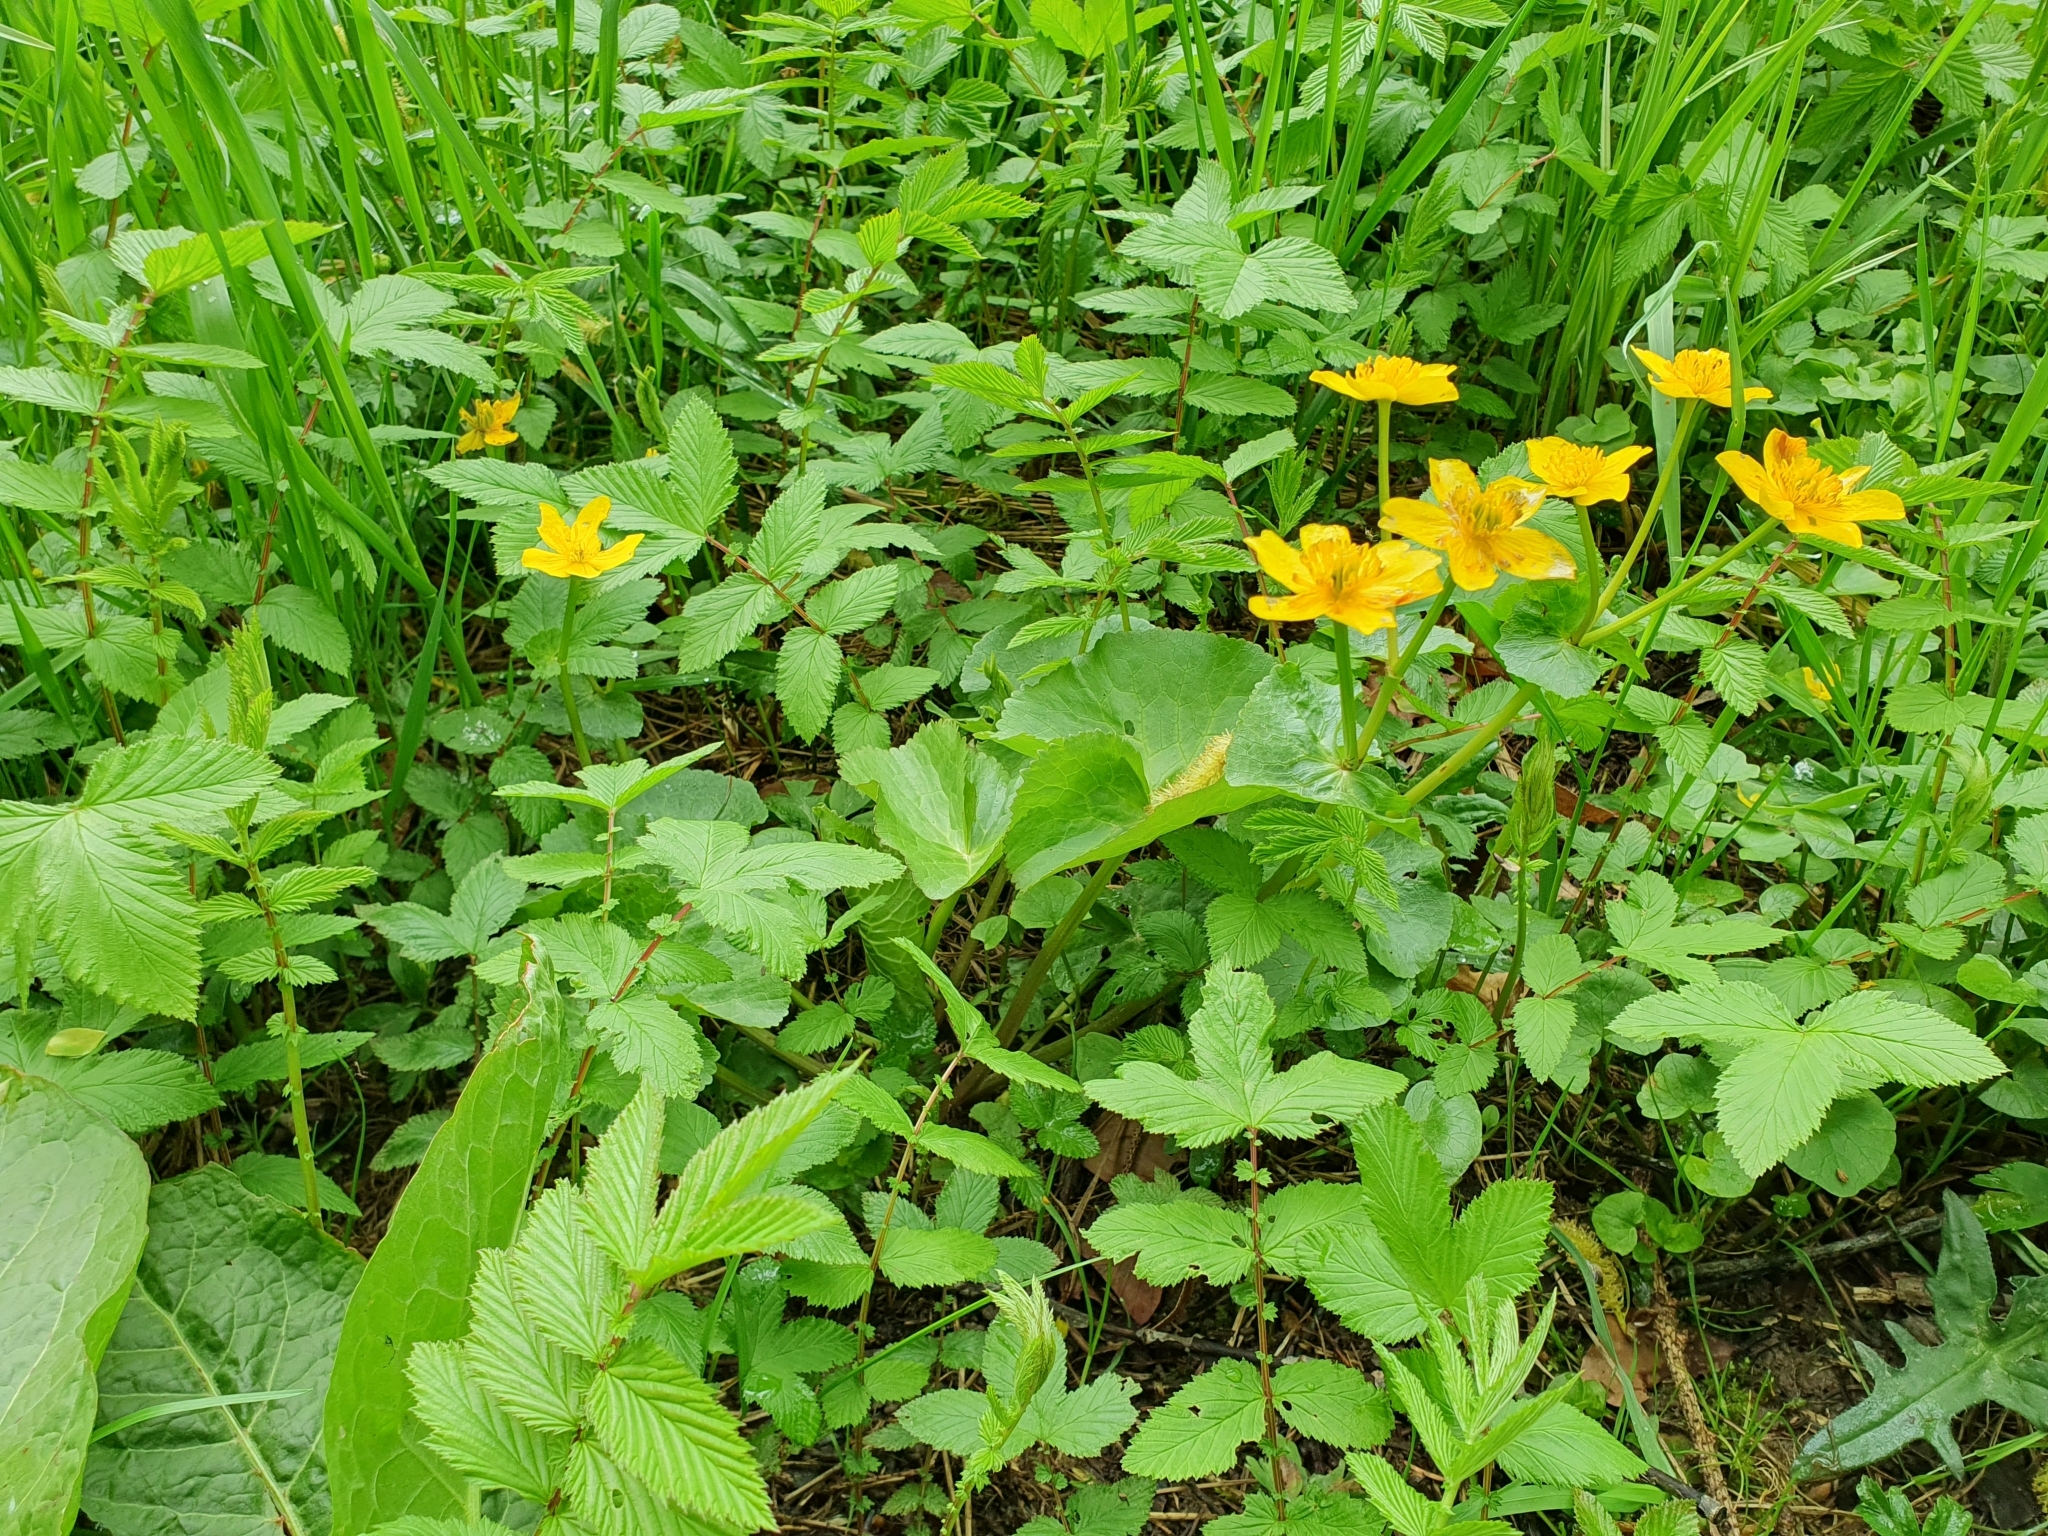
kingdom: Plantae
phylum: Tracheophyta
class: Magnoliopsida
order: Ranunculales
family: Ranunculaceae
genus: Caltha
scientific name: Caltha palustris
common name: Marsh marigold
